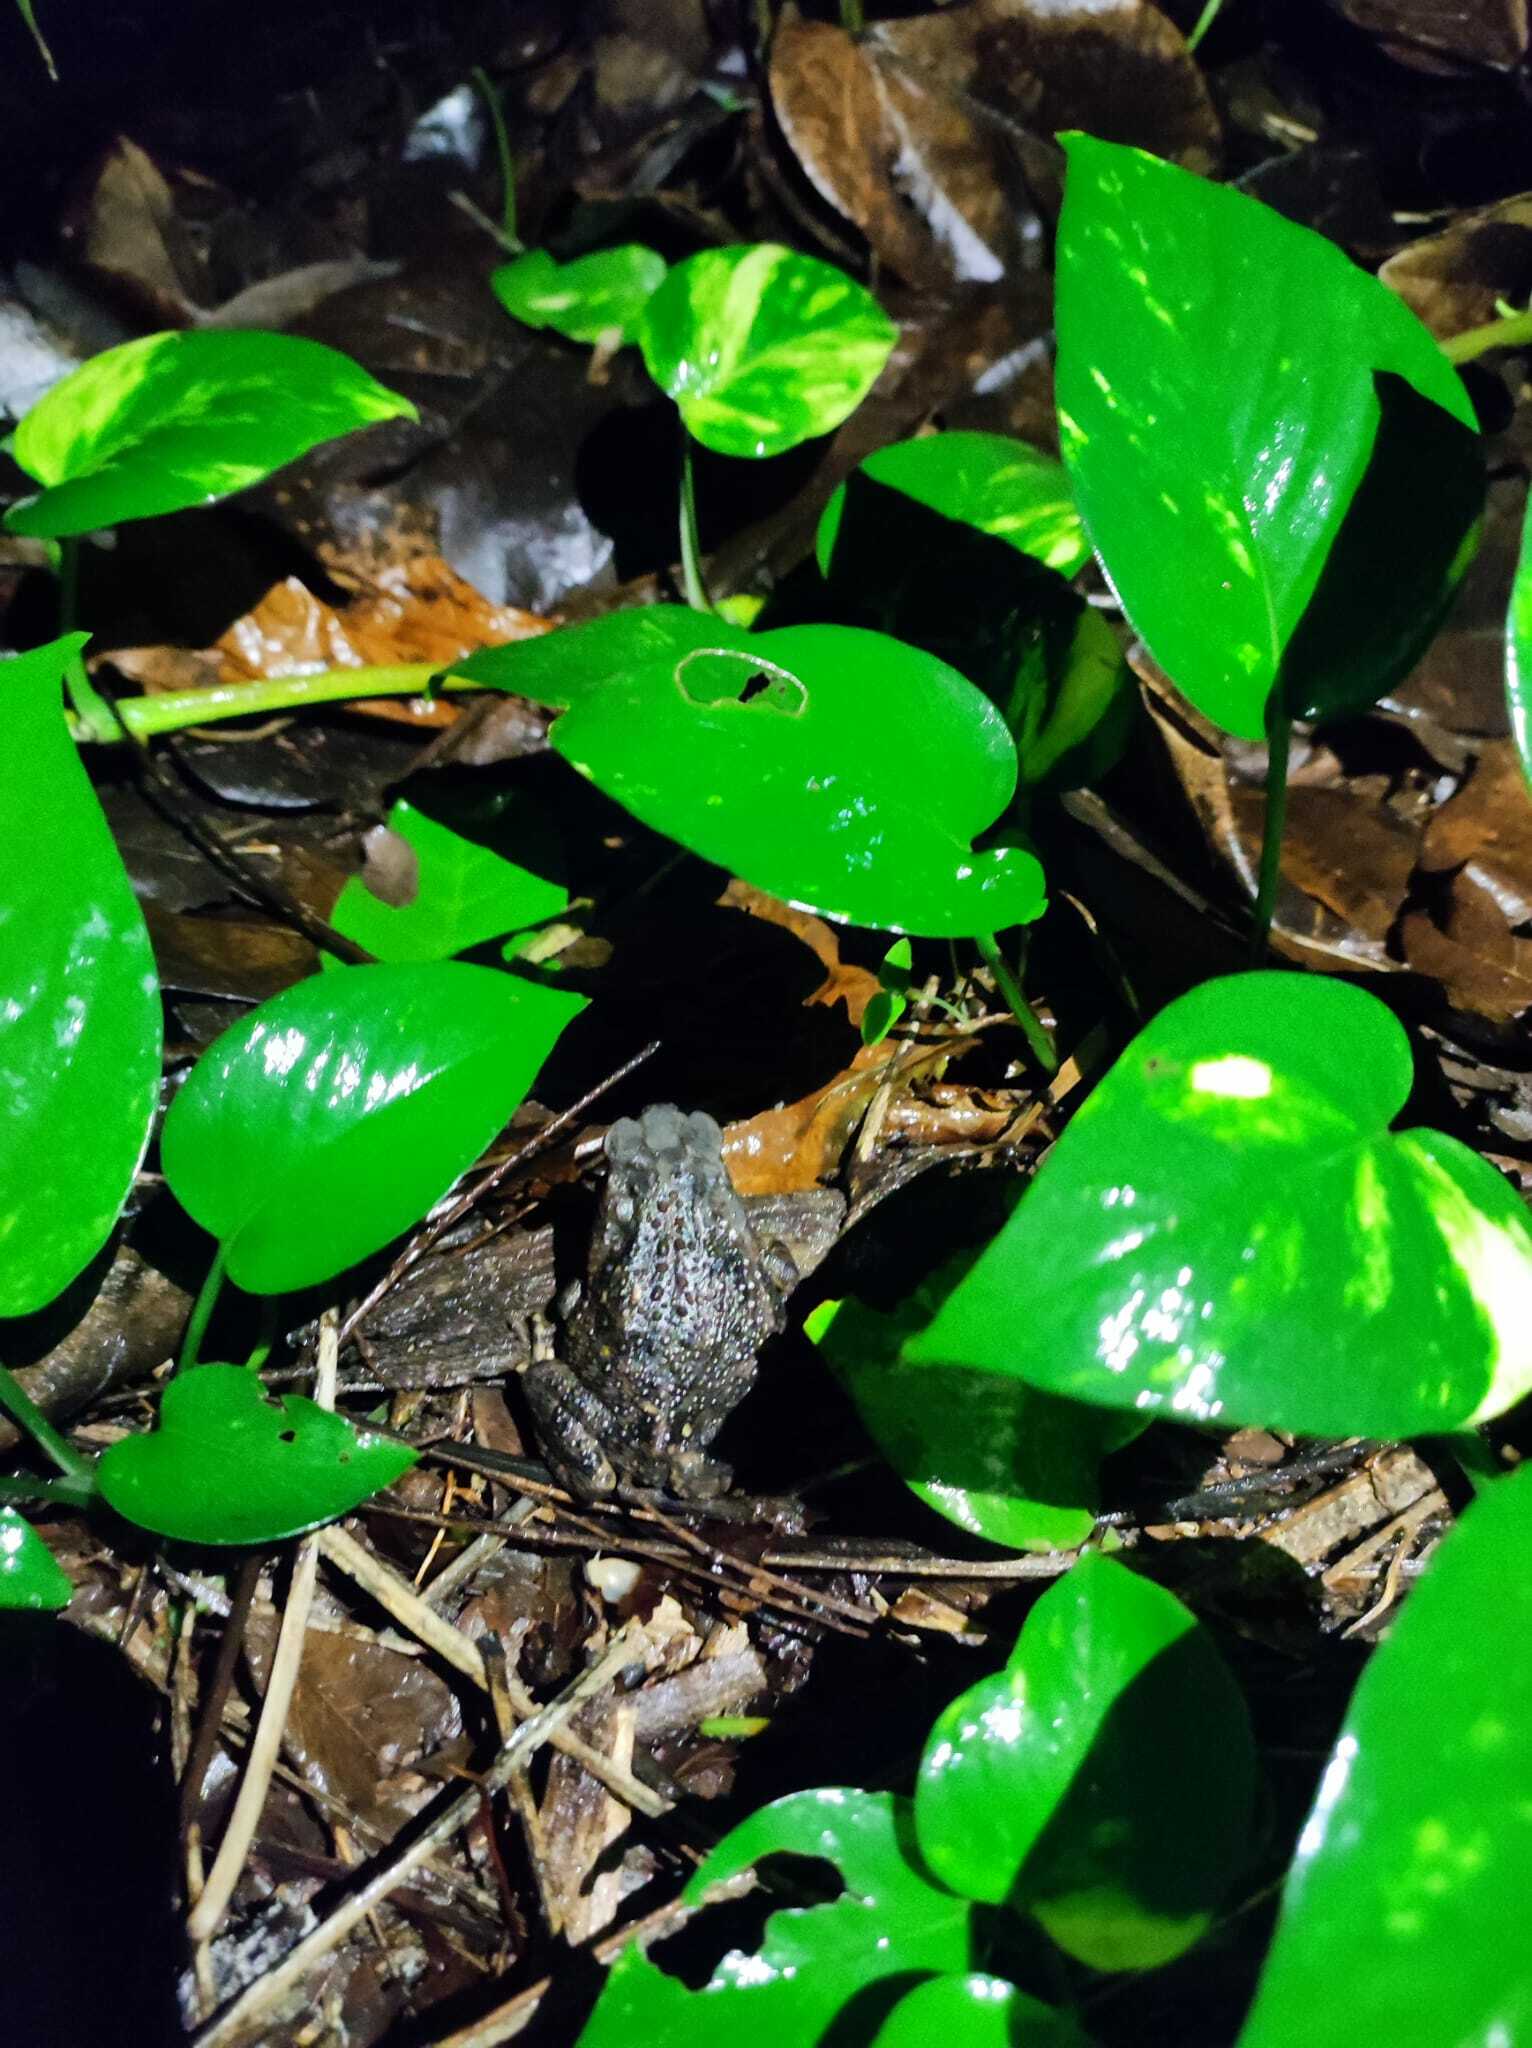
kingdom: Animalia
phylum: Chordata
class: Amphibia
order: Anura
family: Bufonidae
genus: Rhinella
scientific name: Rhinella horribilis
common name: Mesoamerican cane toad
